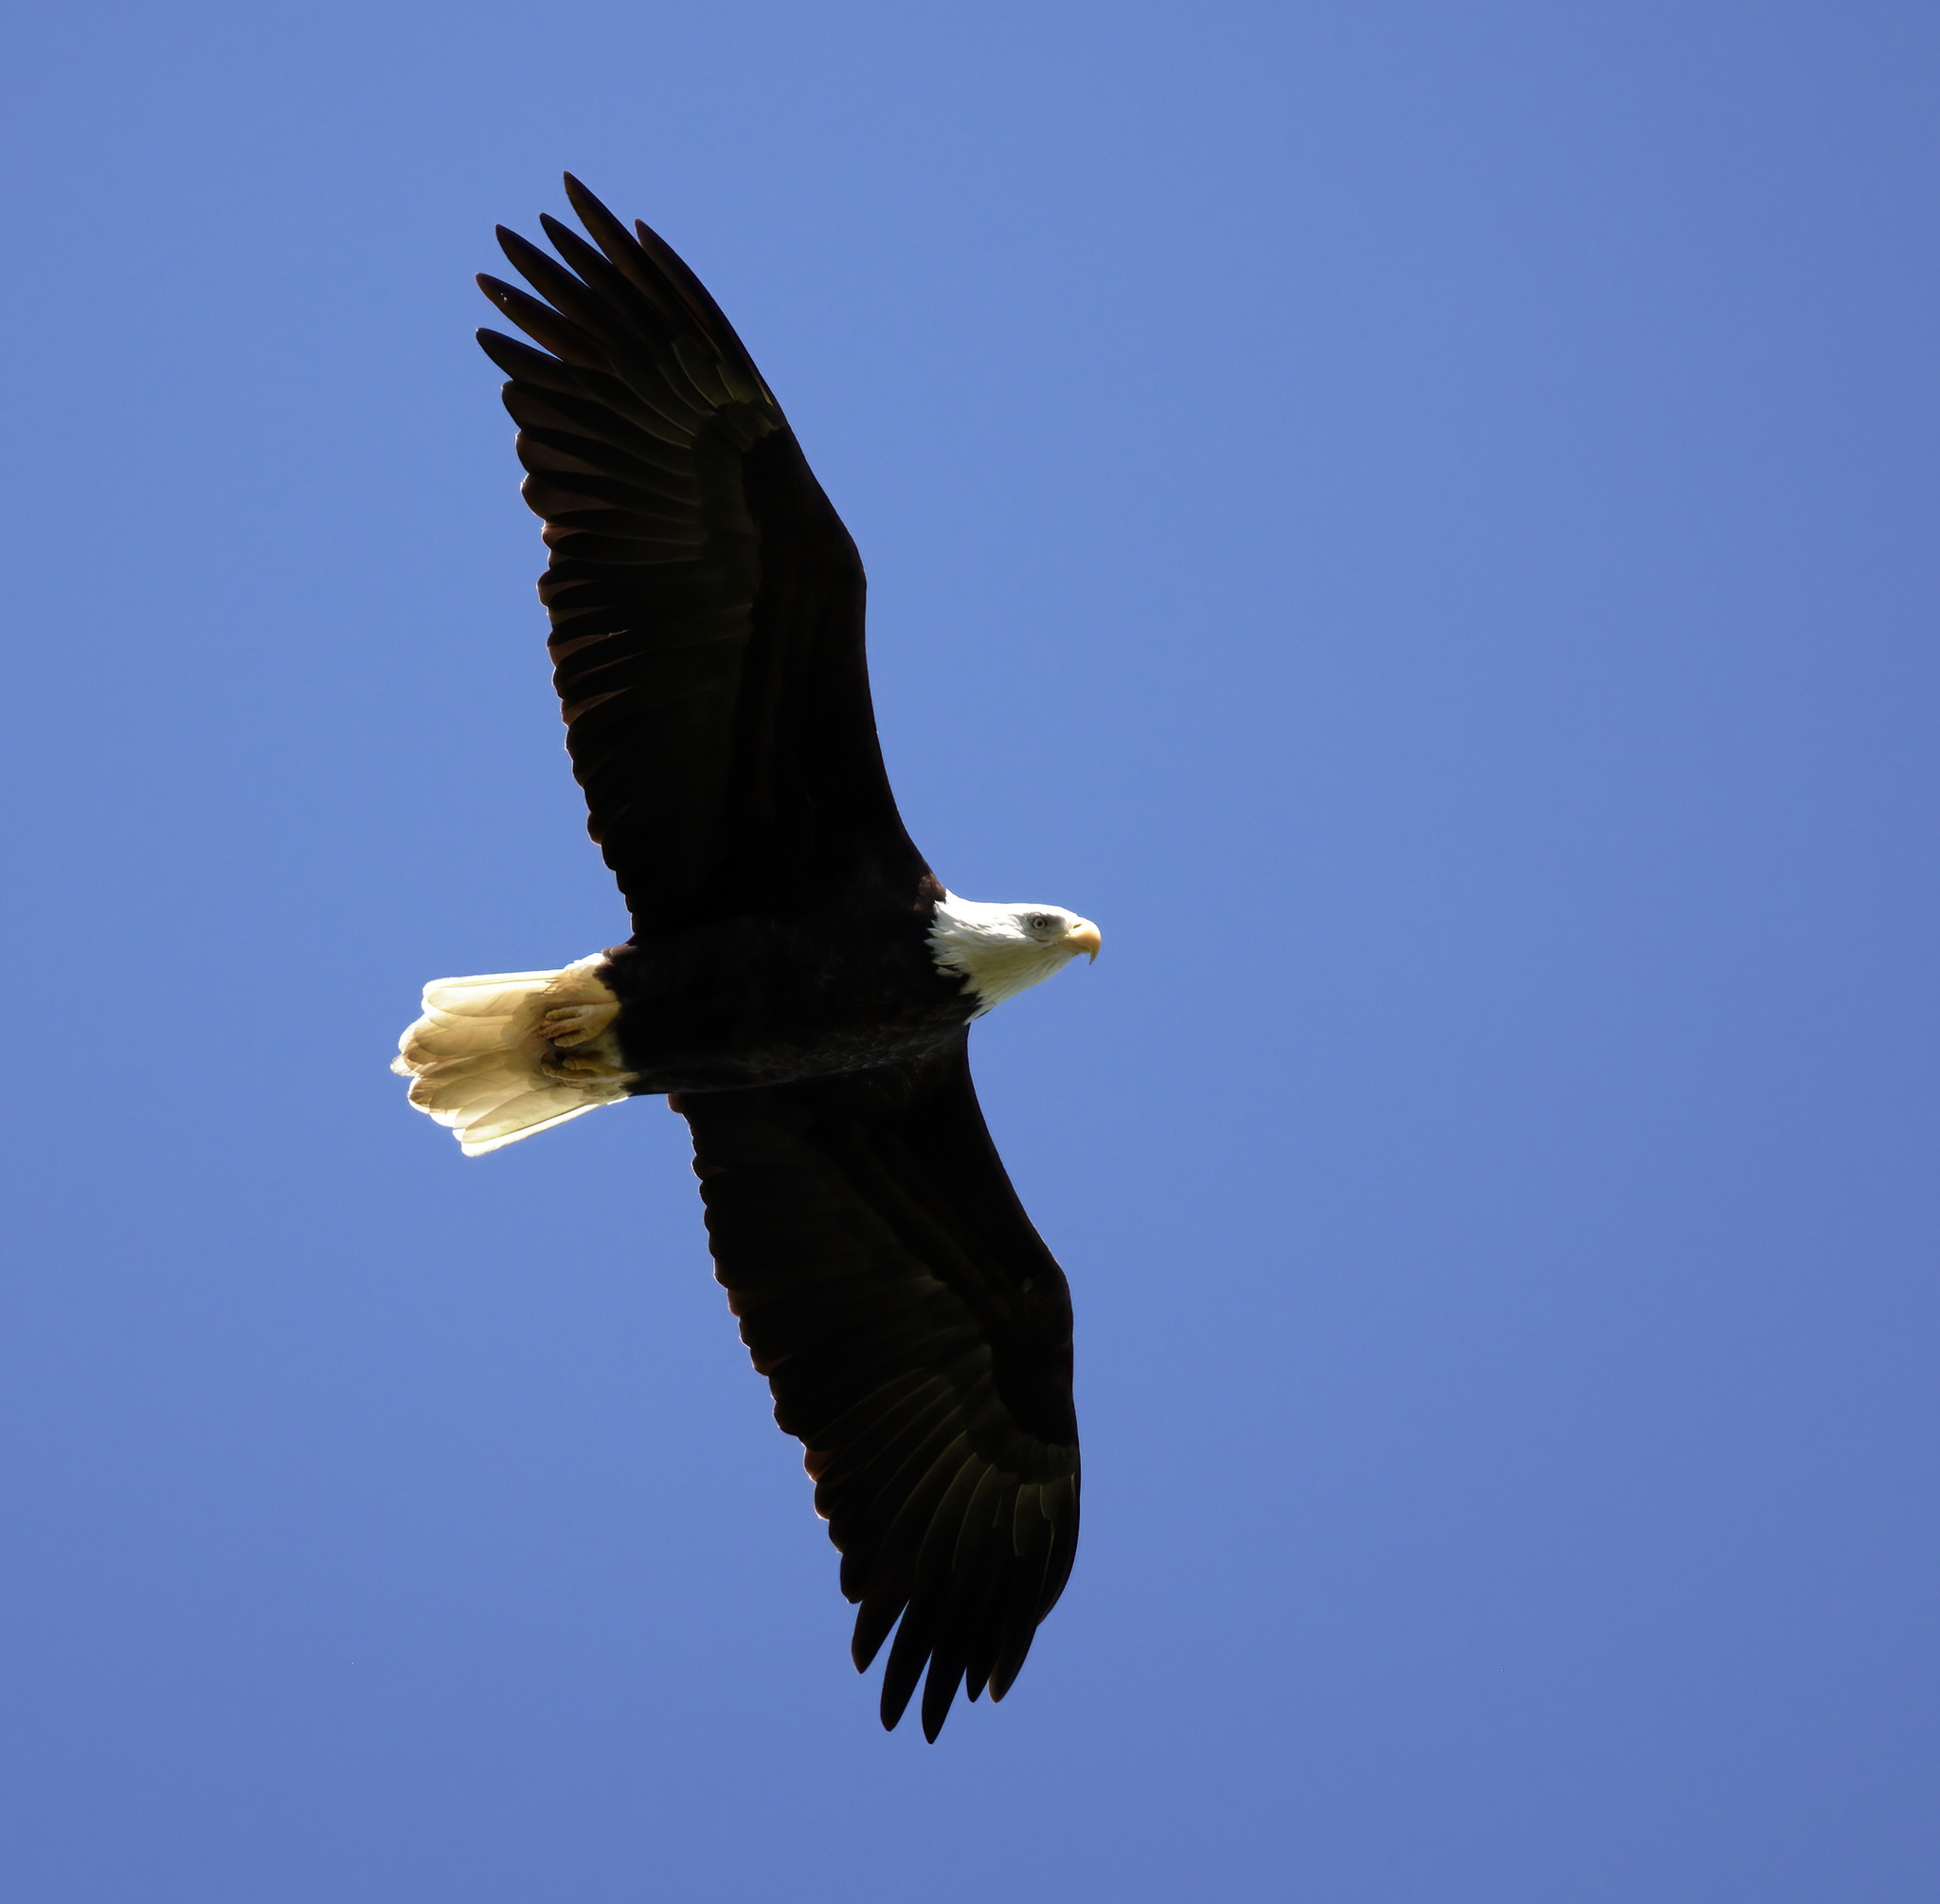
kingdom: Animalia
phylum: Chordata
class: Aves
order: Accipitriformes
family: Accipitridae
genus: Haliaeetus
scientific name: Haliaeetus leucocephalus
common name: Bald eagle
